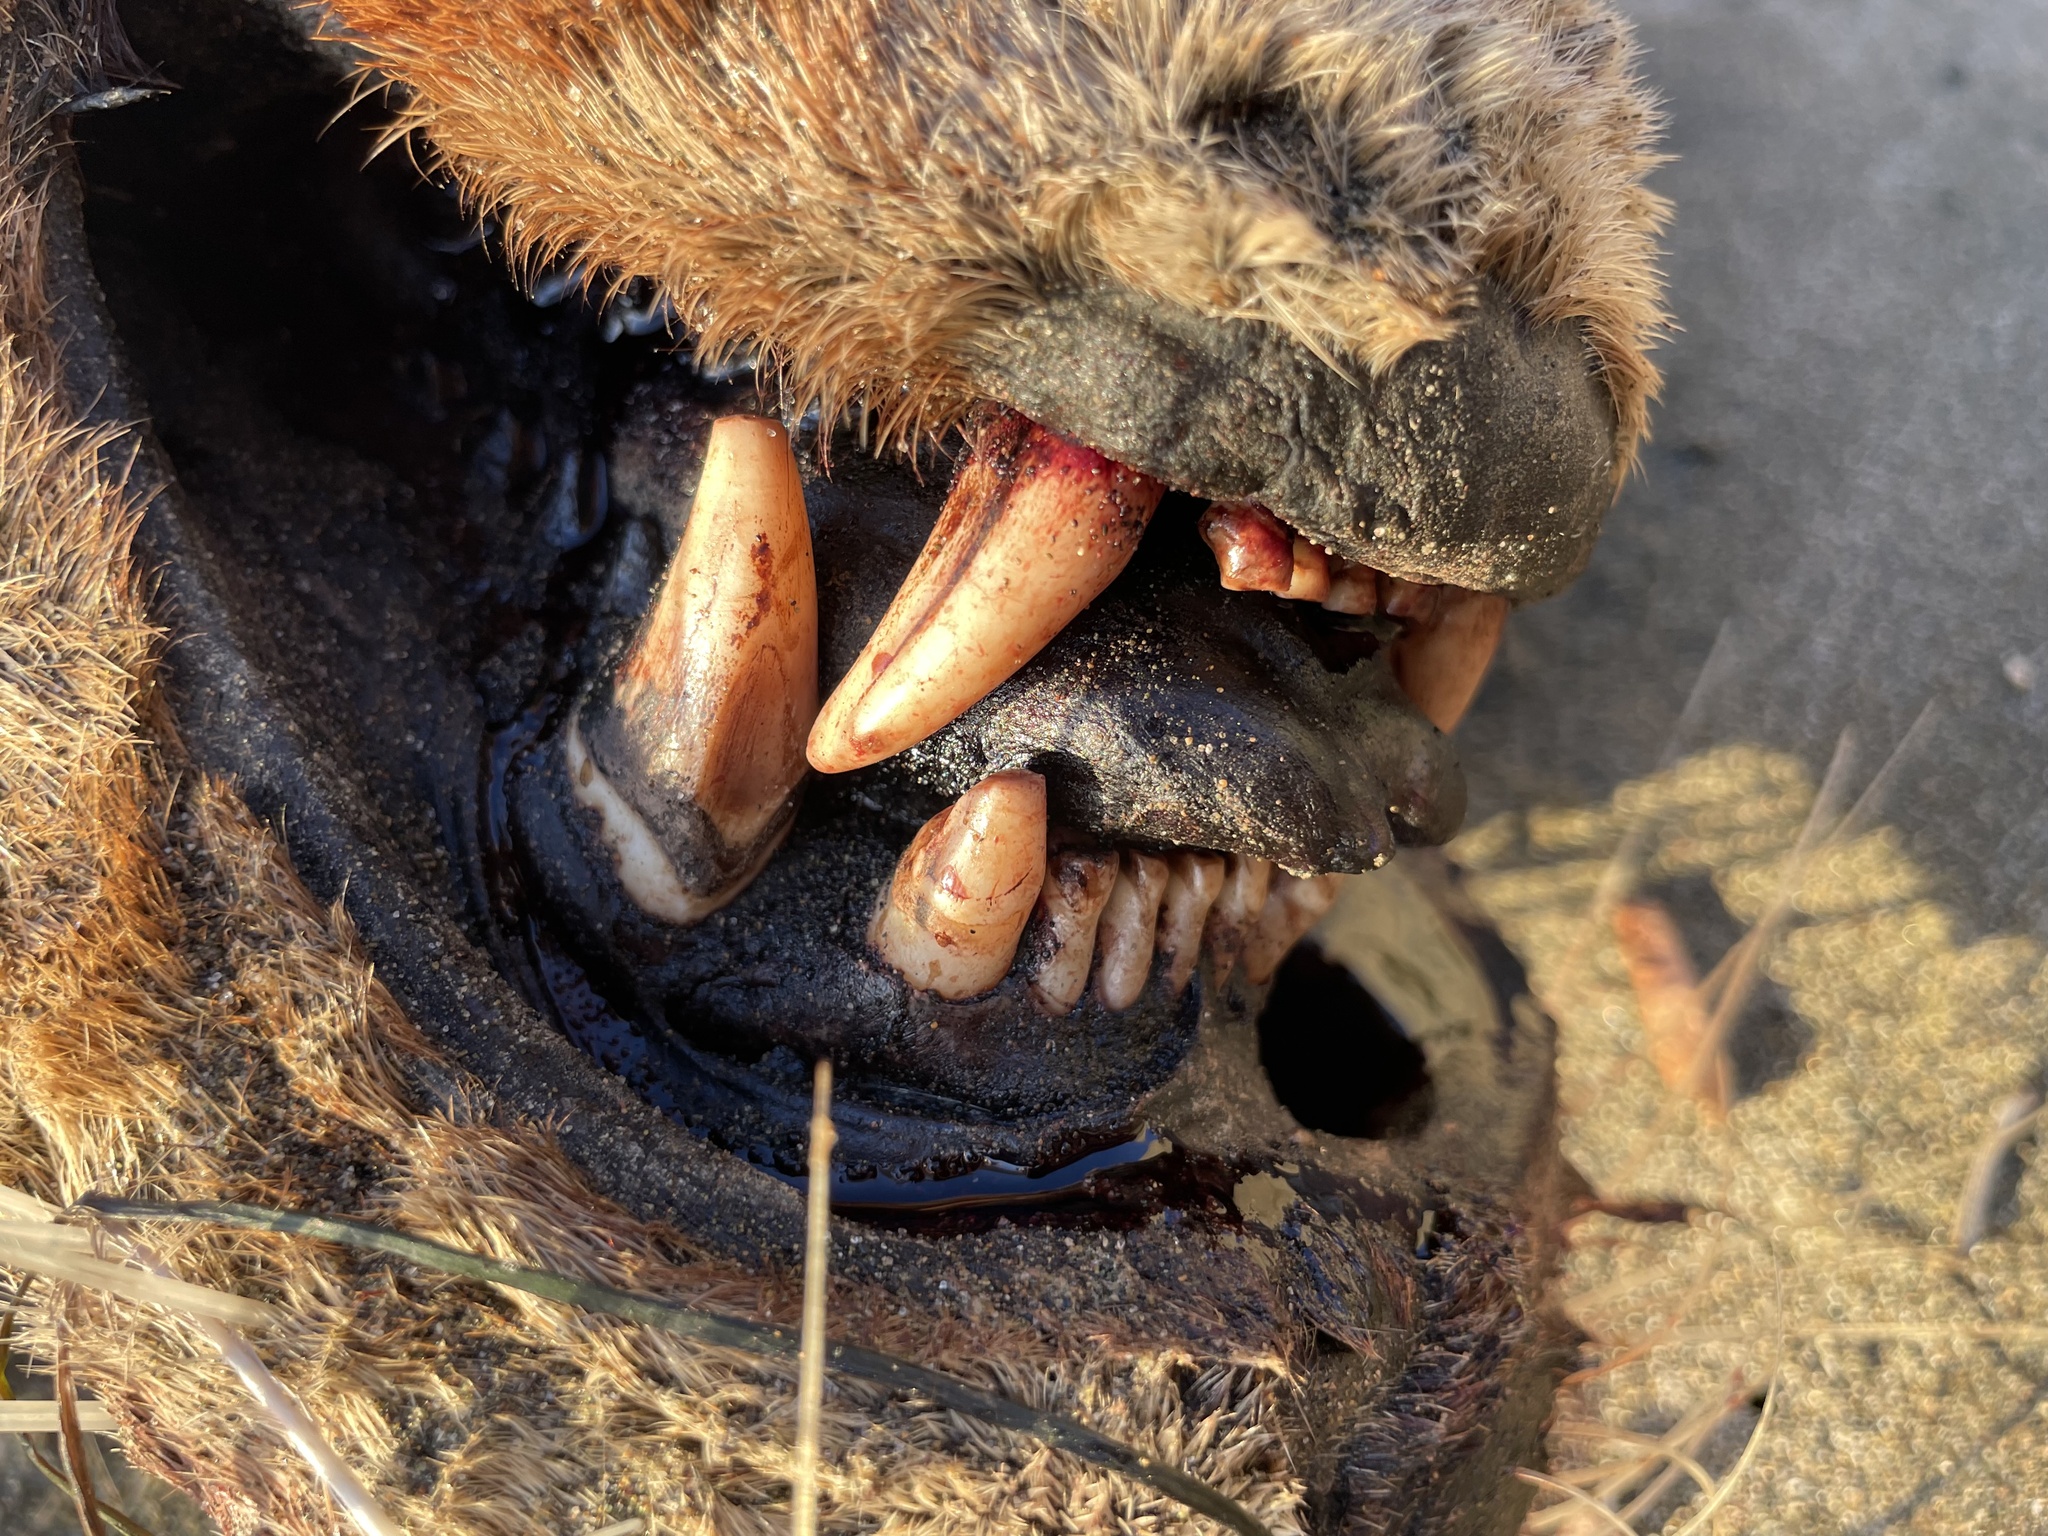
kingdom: Animalia
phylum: Chordata
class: Mammalia
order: Carnivora
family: Otariidae
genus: Zalophus
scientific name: Zalophus californianus
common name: California sea lion
